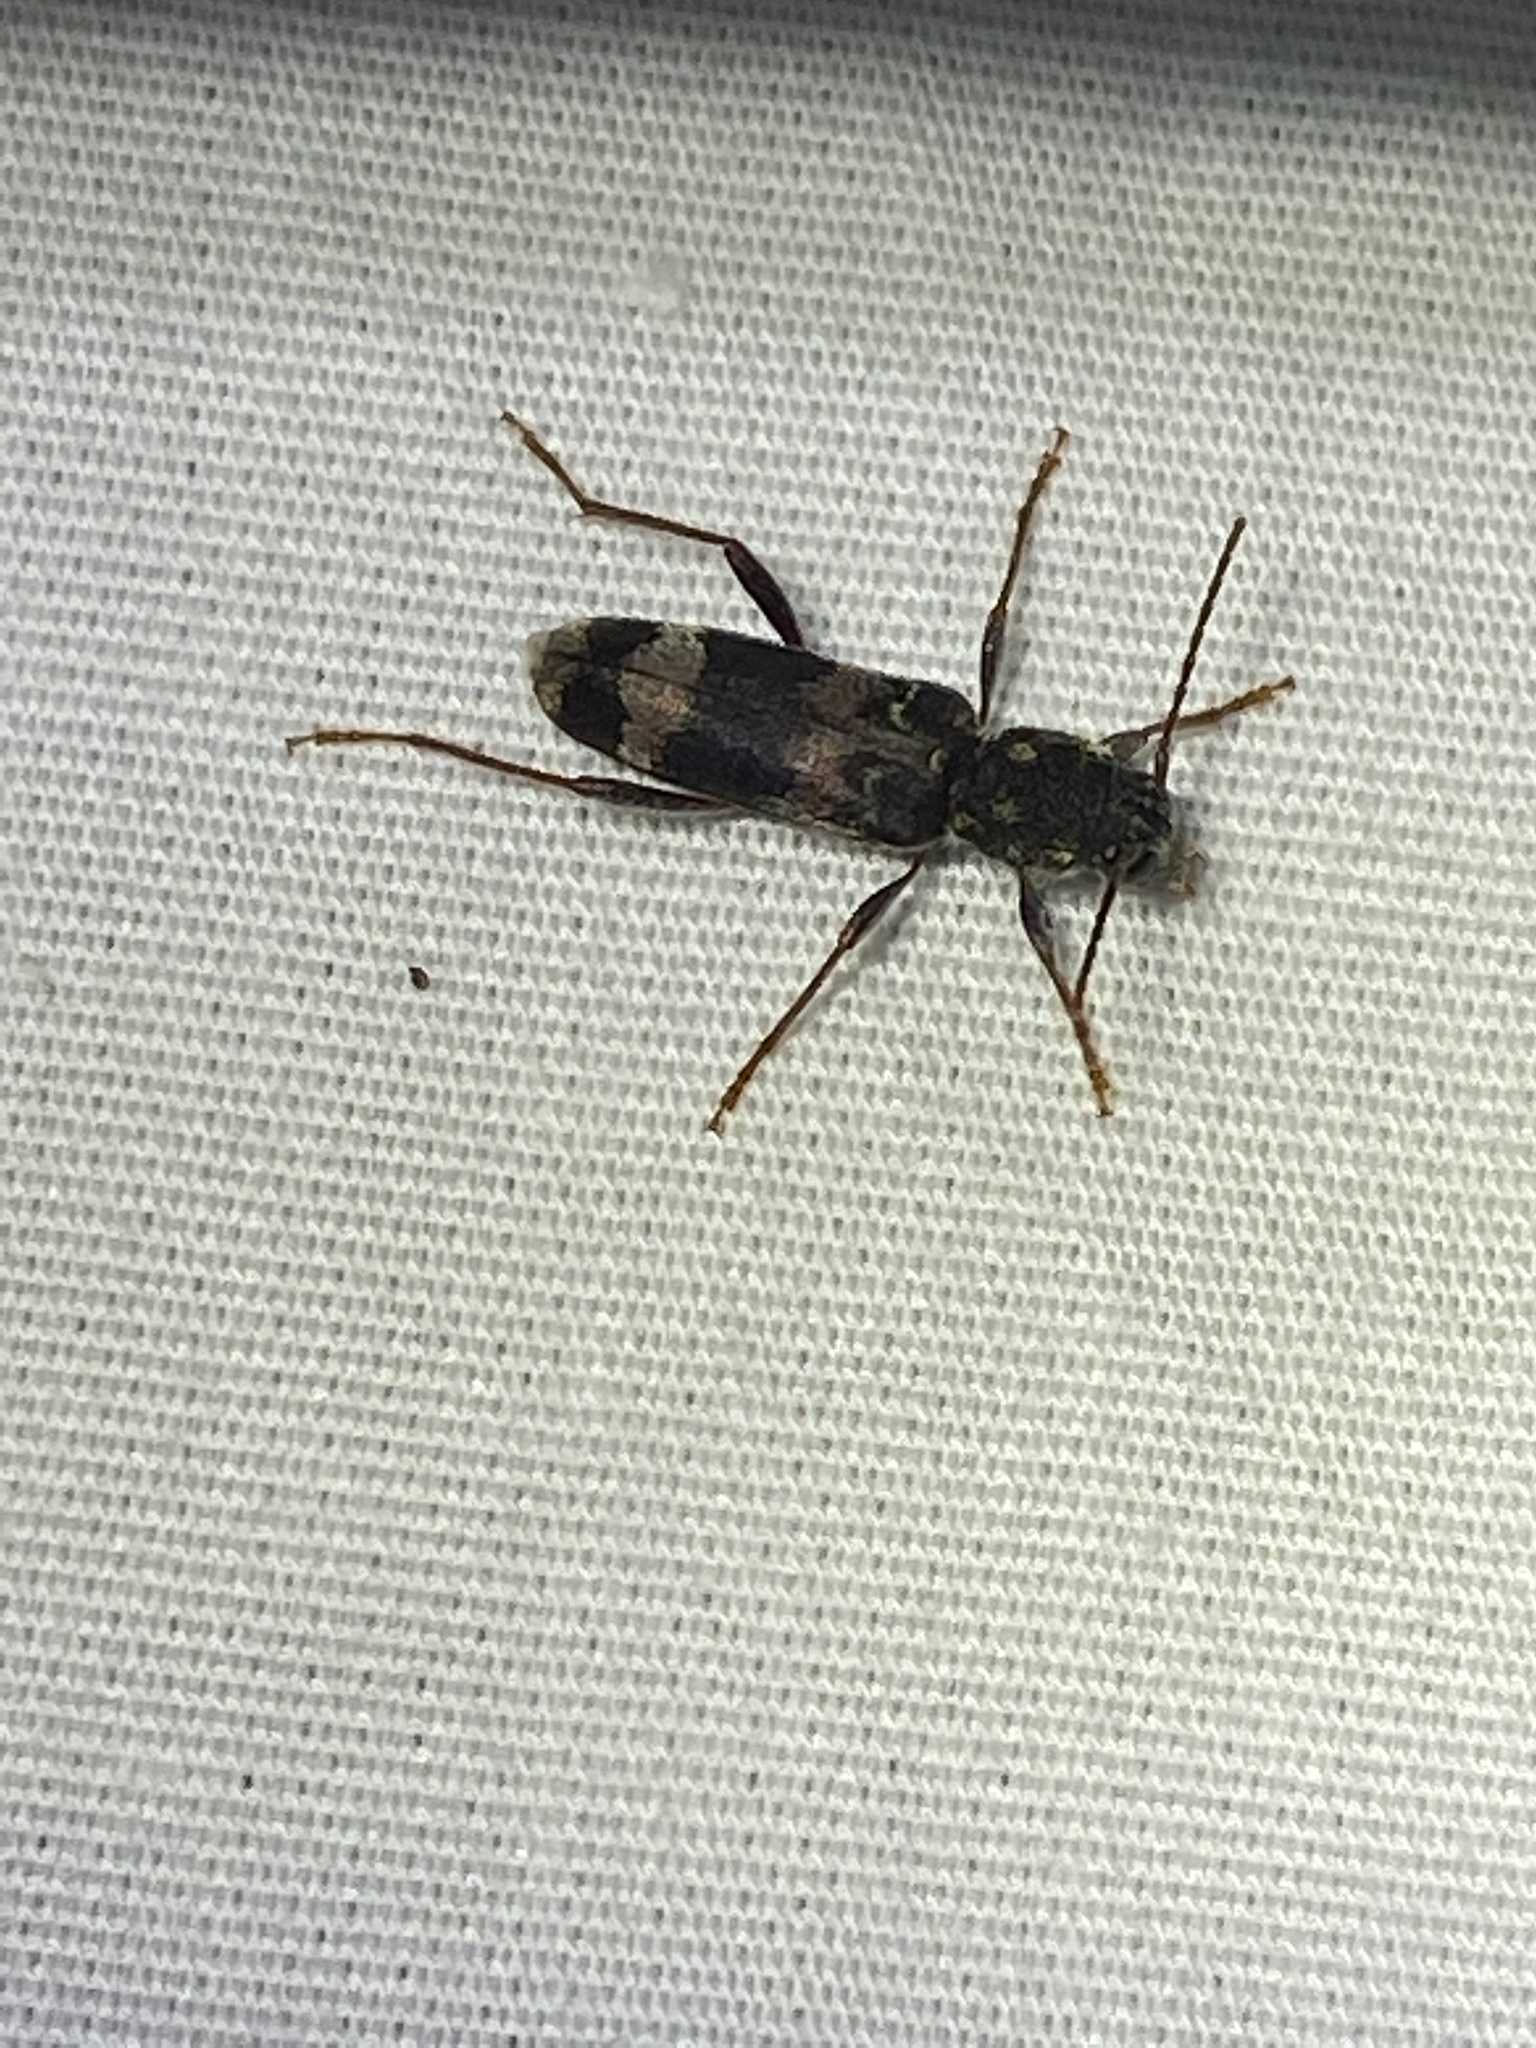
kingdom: Animalia
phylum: Arthropoda
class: Insecta
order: Coleoptera
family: Cerambycidae
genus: Xylotrechus
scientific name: Xylotrechus colonus
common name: Long-horned beetle
